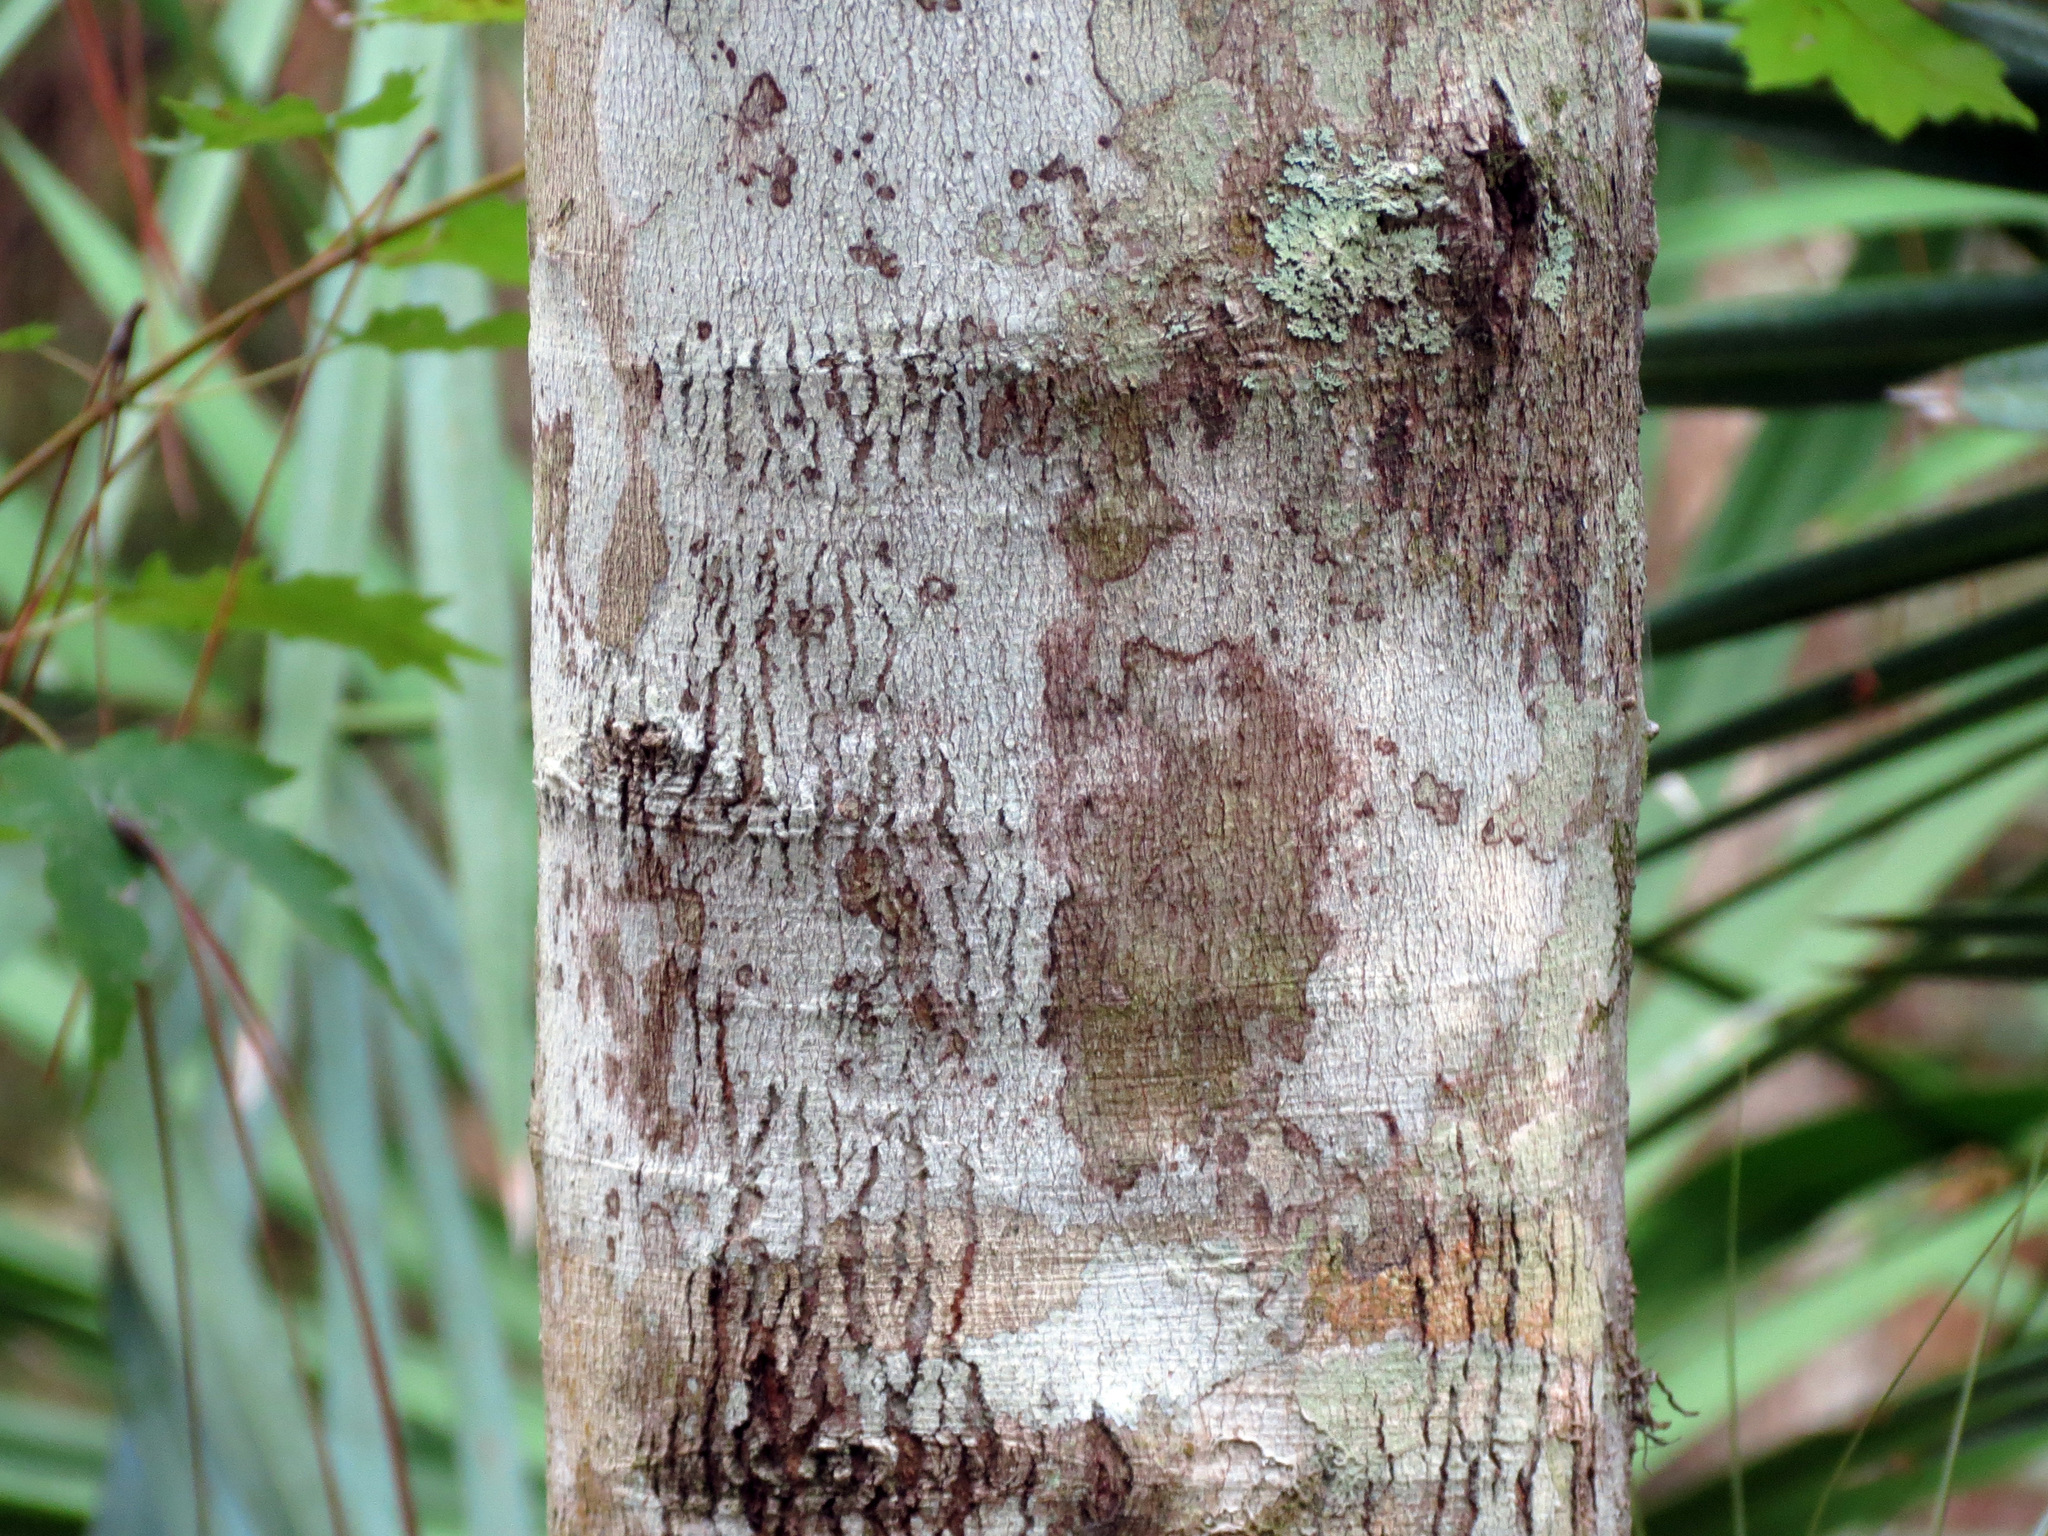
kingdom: Plantae
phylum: Tracheophyta
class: Magnoliopsida
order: Sapindales
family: Sapindaceae
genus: Acer
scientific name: Acer rubrum
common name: Red maple
